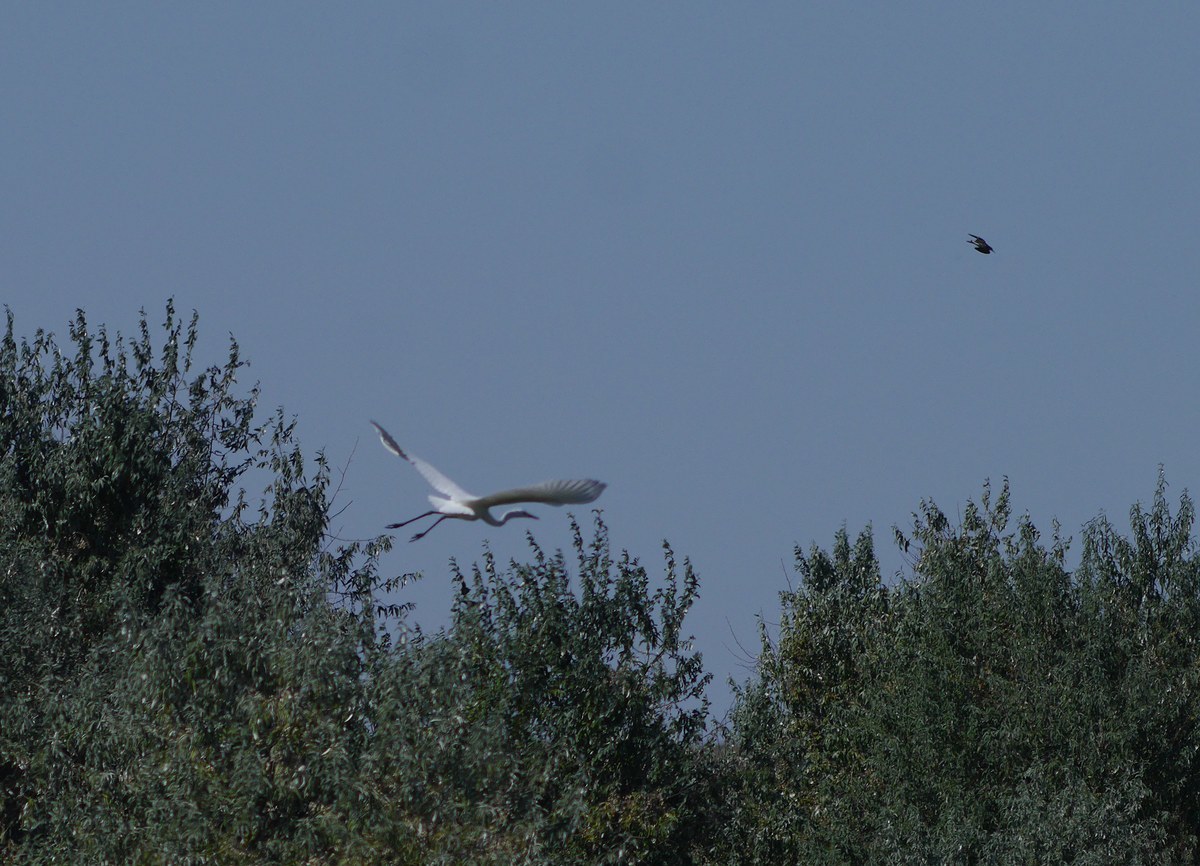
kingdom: Animalia
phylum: Chordata
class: Aves
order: Pelecaniformes
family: Ardeidae
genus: Ardea
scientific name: Ardea alba
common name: Great egret
